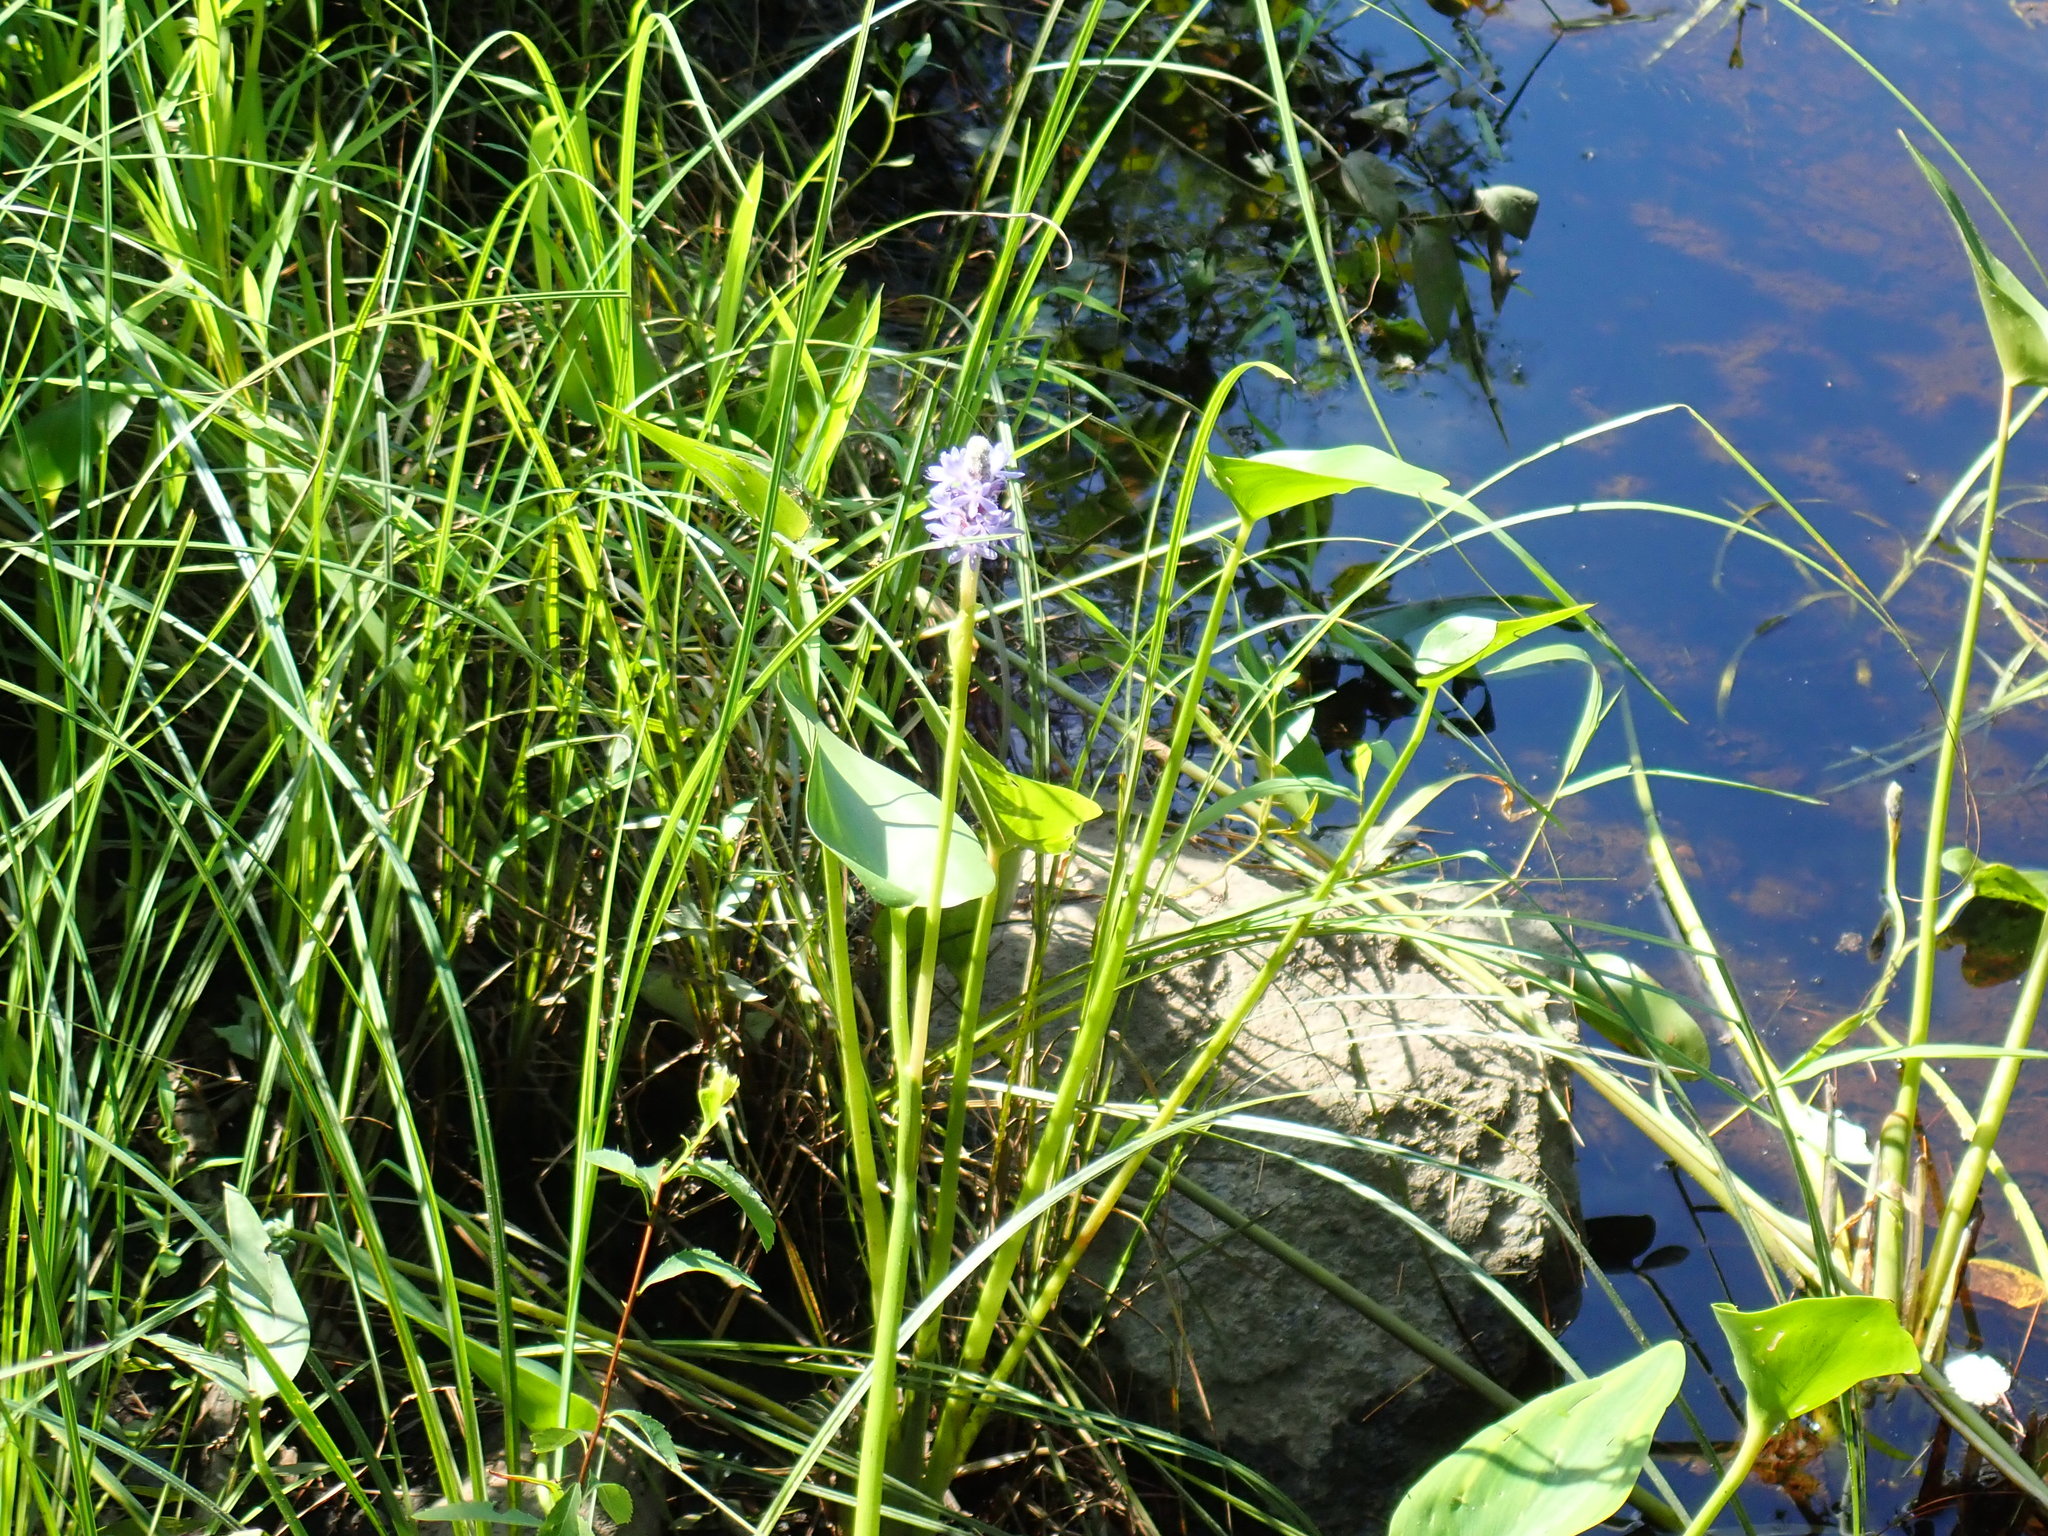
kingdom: Plantae
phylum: Tracheophyta
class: Liliopsida
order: Commelinales
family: Pontederiaceae
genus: Pontederia
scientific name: Pontederia cordata
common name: Pickerelweed
